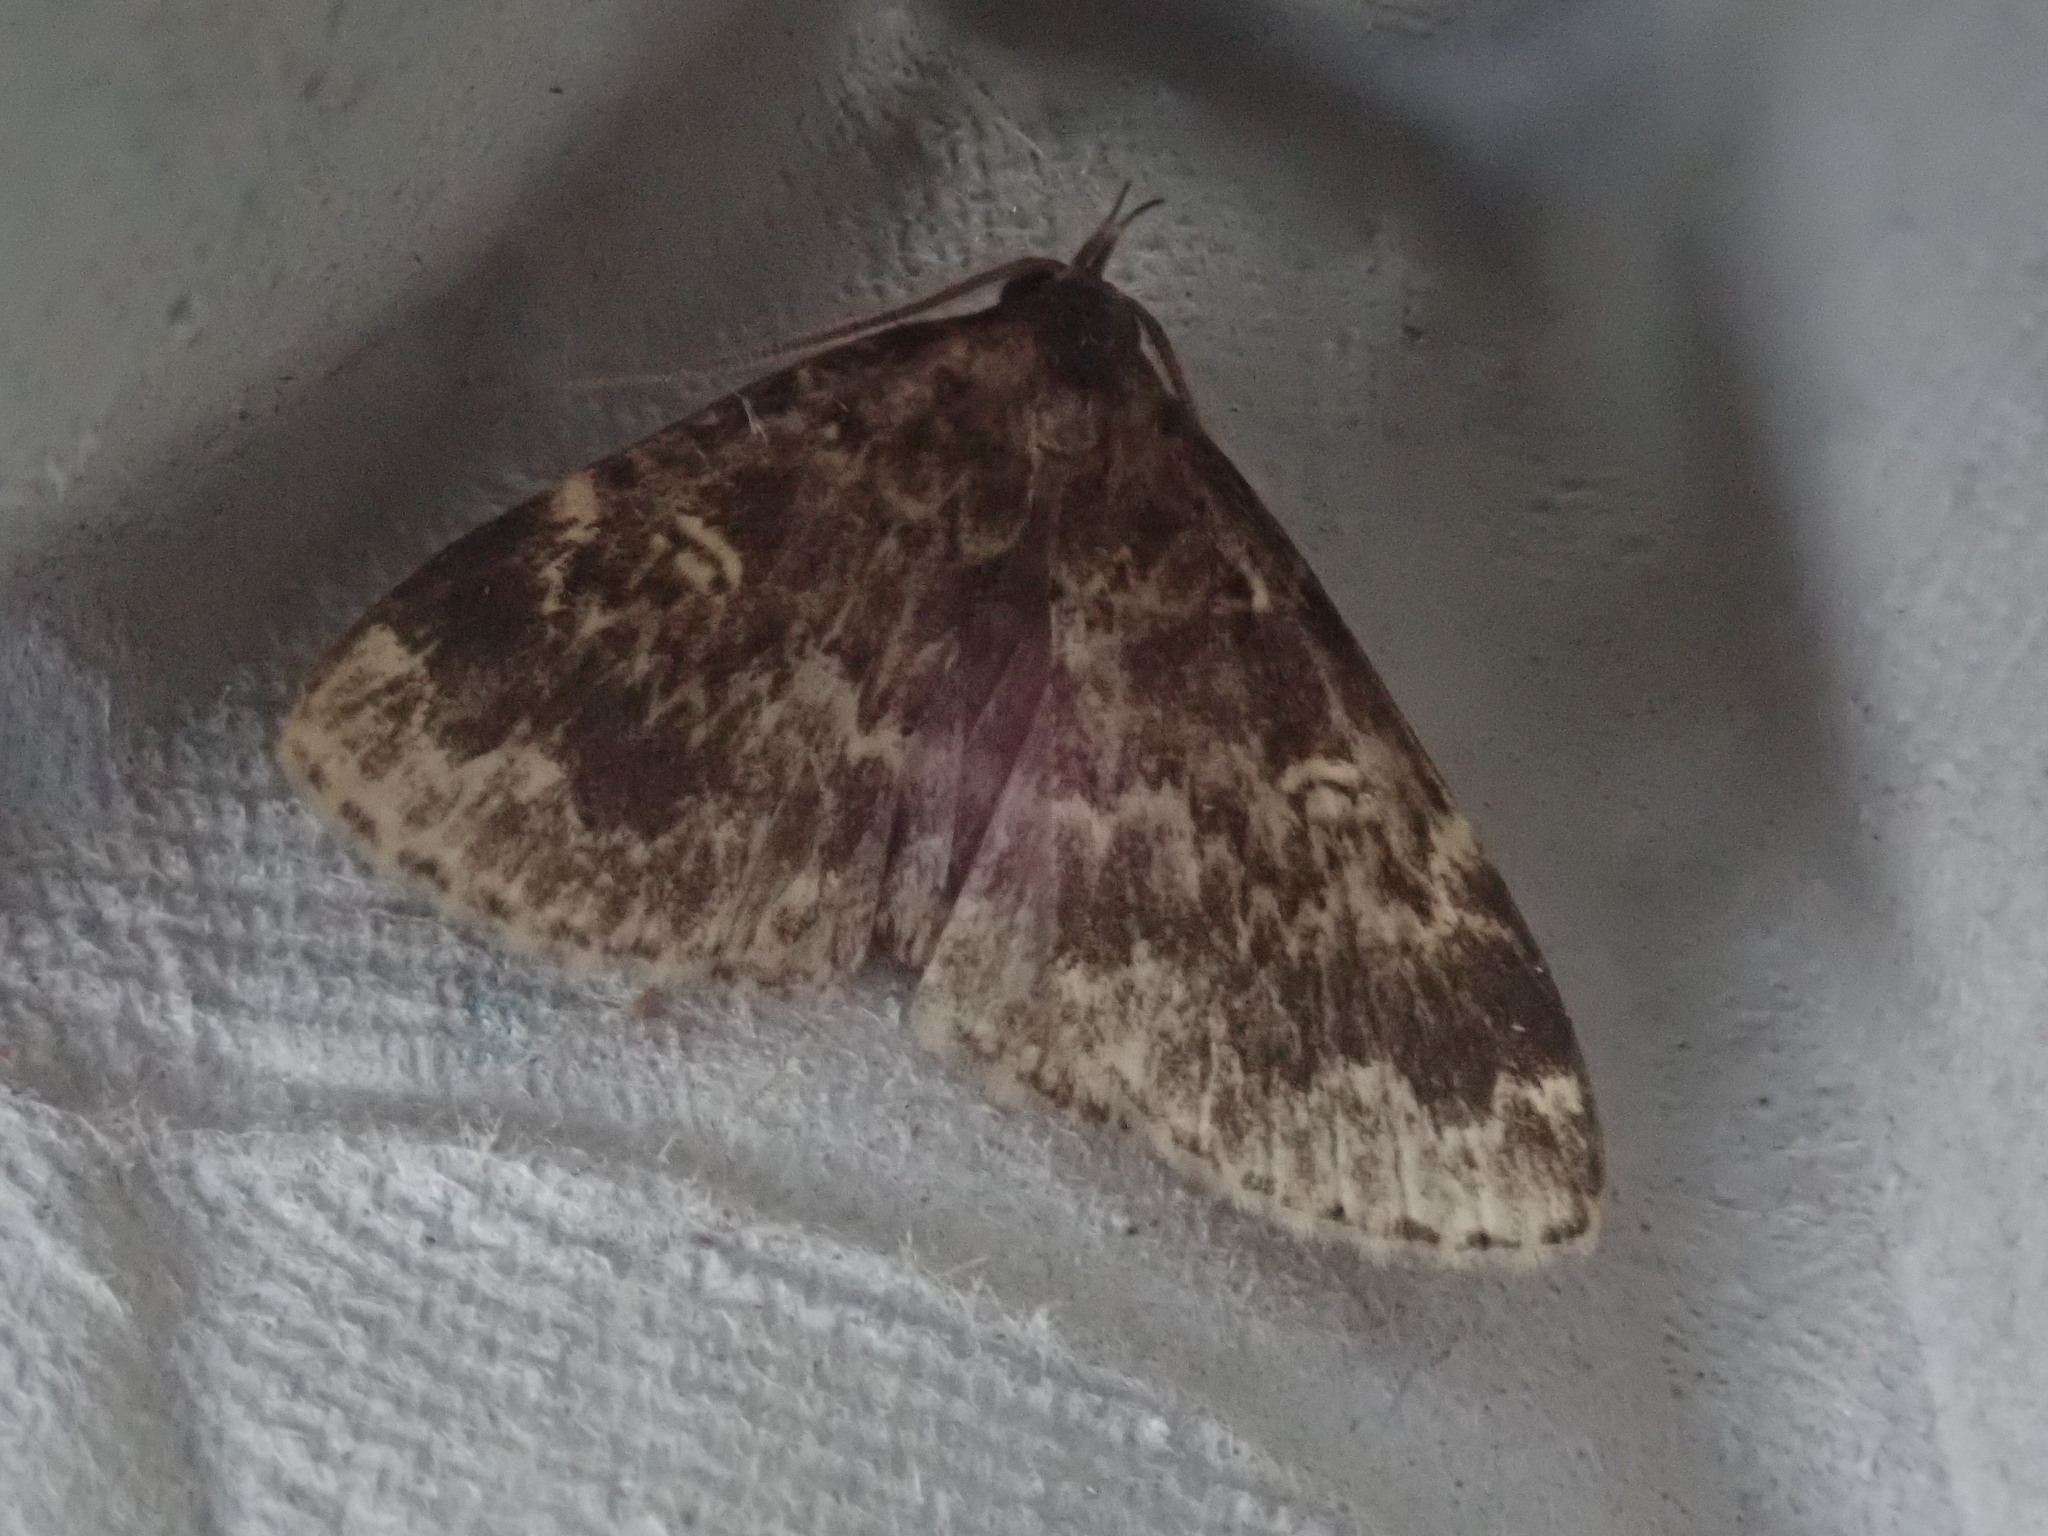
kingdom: Animalia
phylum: Arthropoda
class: Insecta
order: Lepidoptera
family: Erebidae
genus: Idia
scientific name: Idia lubricalis
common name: Twin-striped tabby
